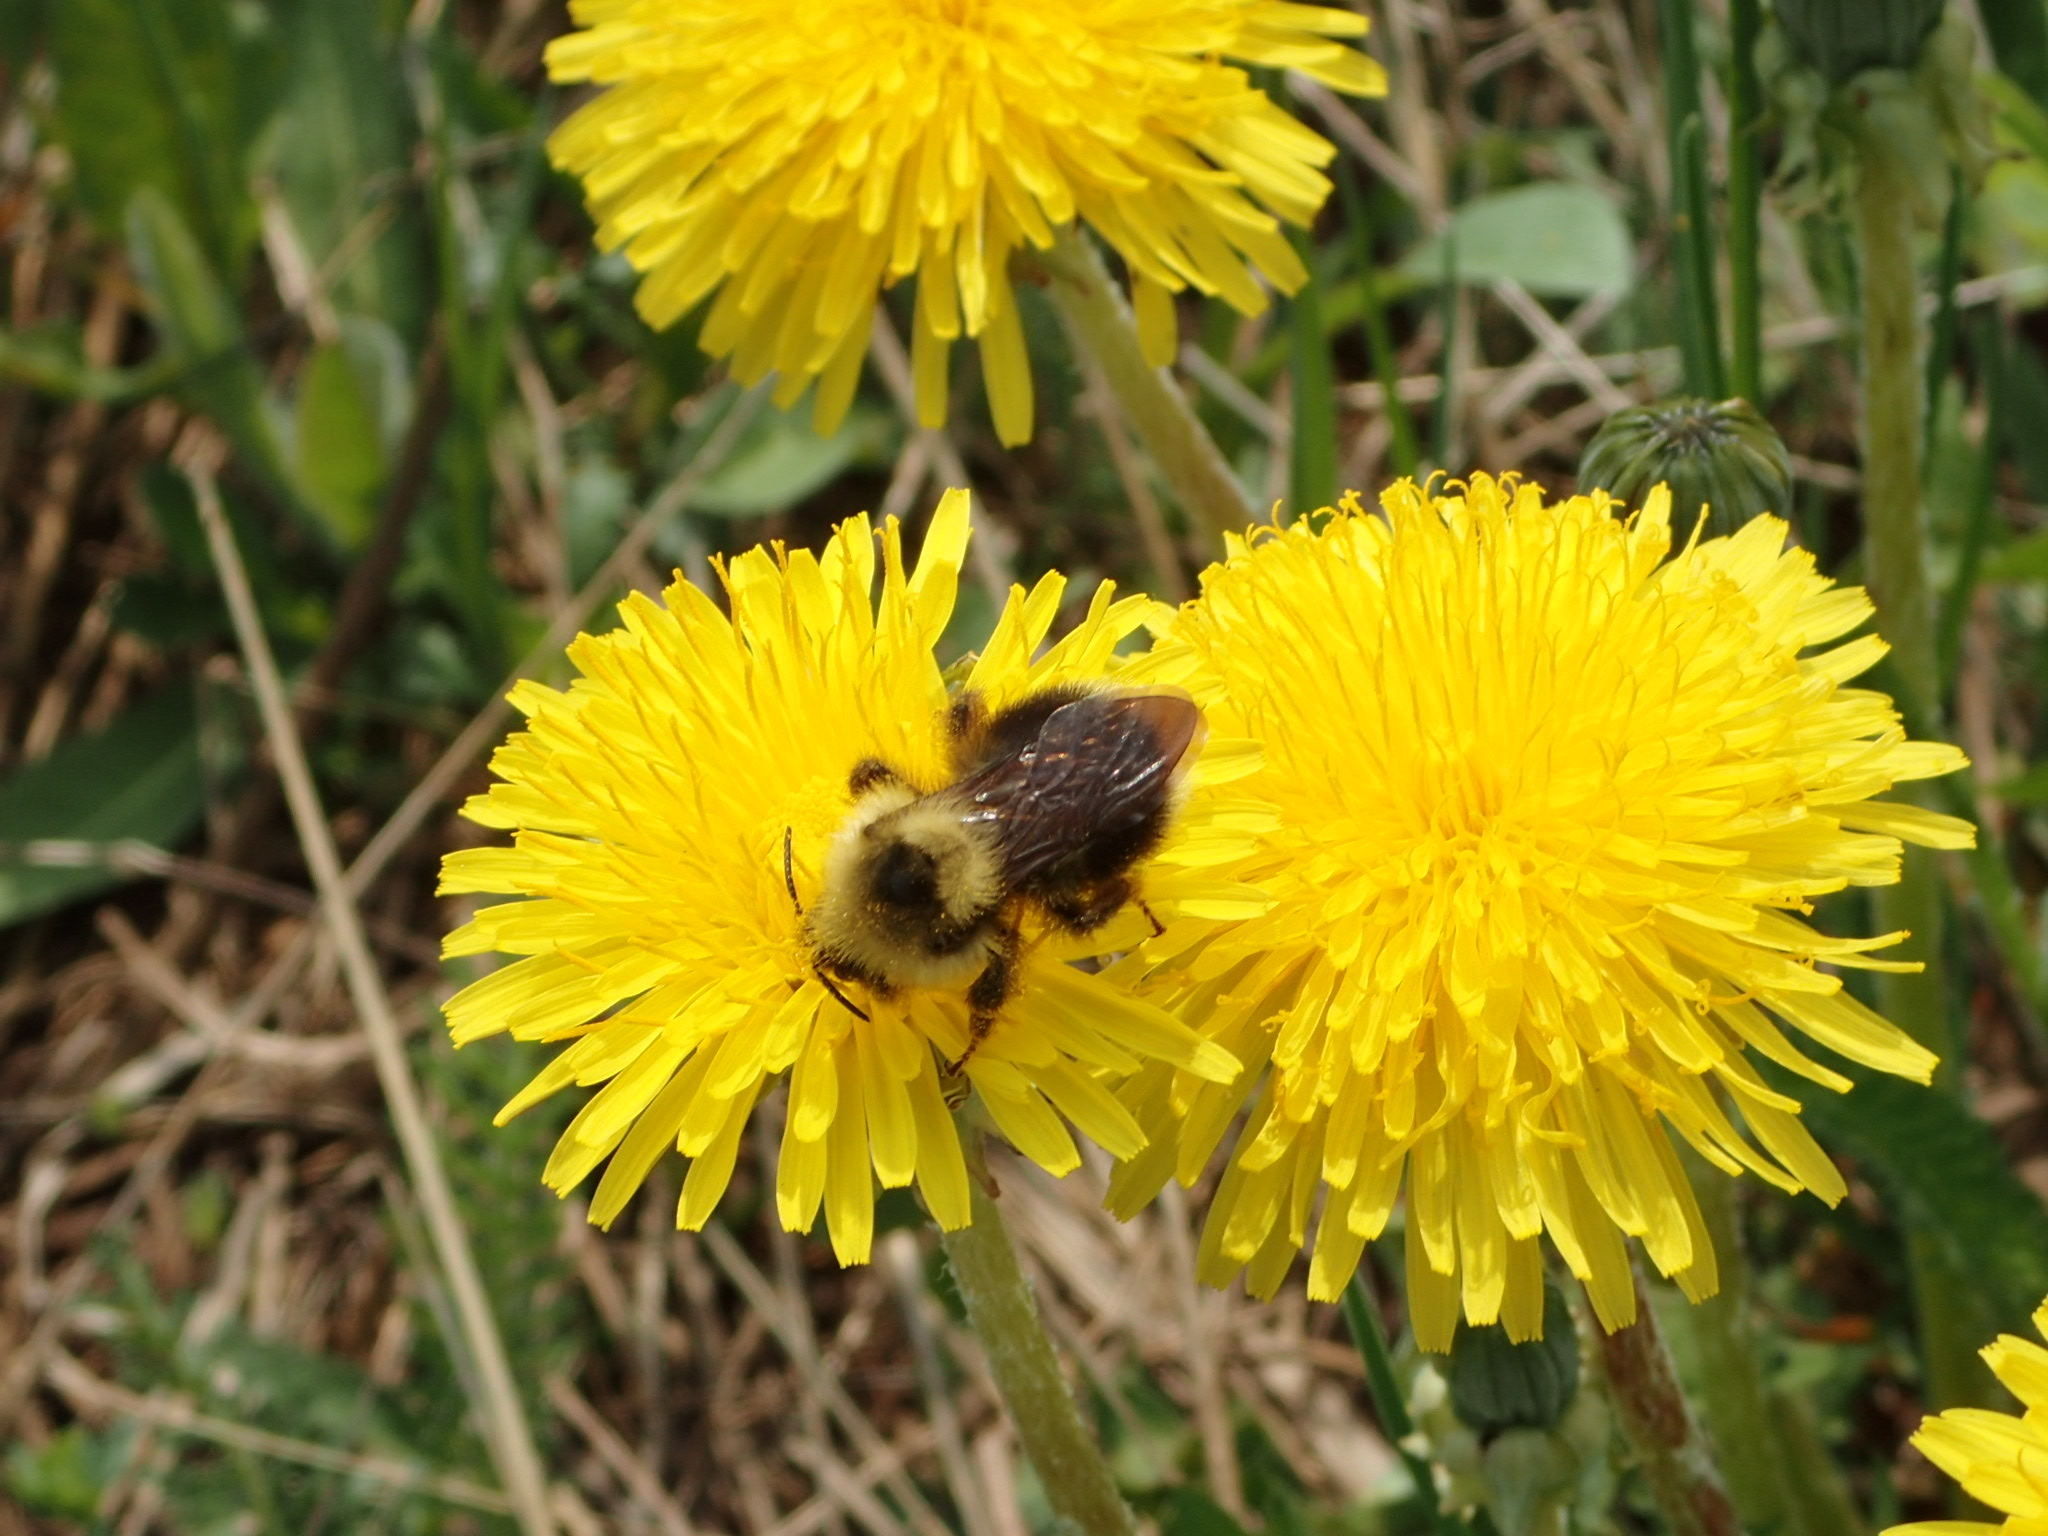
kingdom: Animalia
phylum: Arthropoda
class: Insecta
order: Hymenoptera
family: Apidae
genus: Bombus
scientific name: Bombus flavidus
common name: Fernald cuckoo bumble bee
